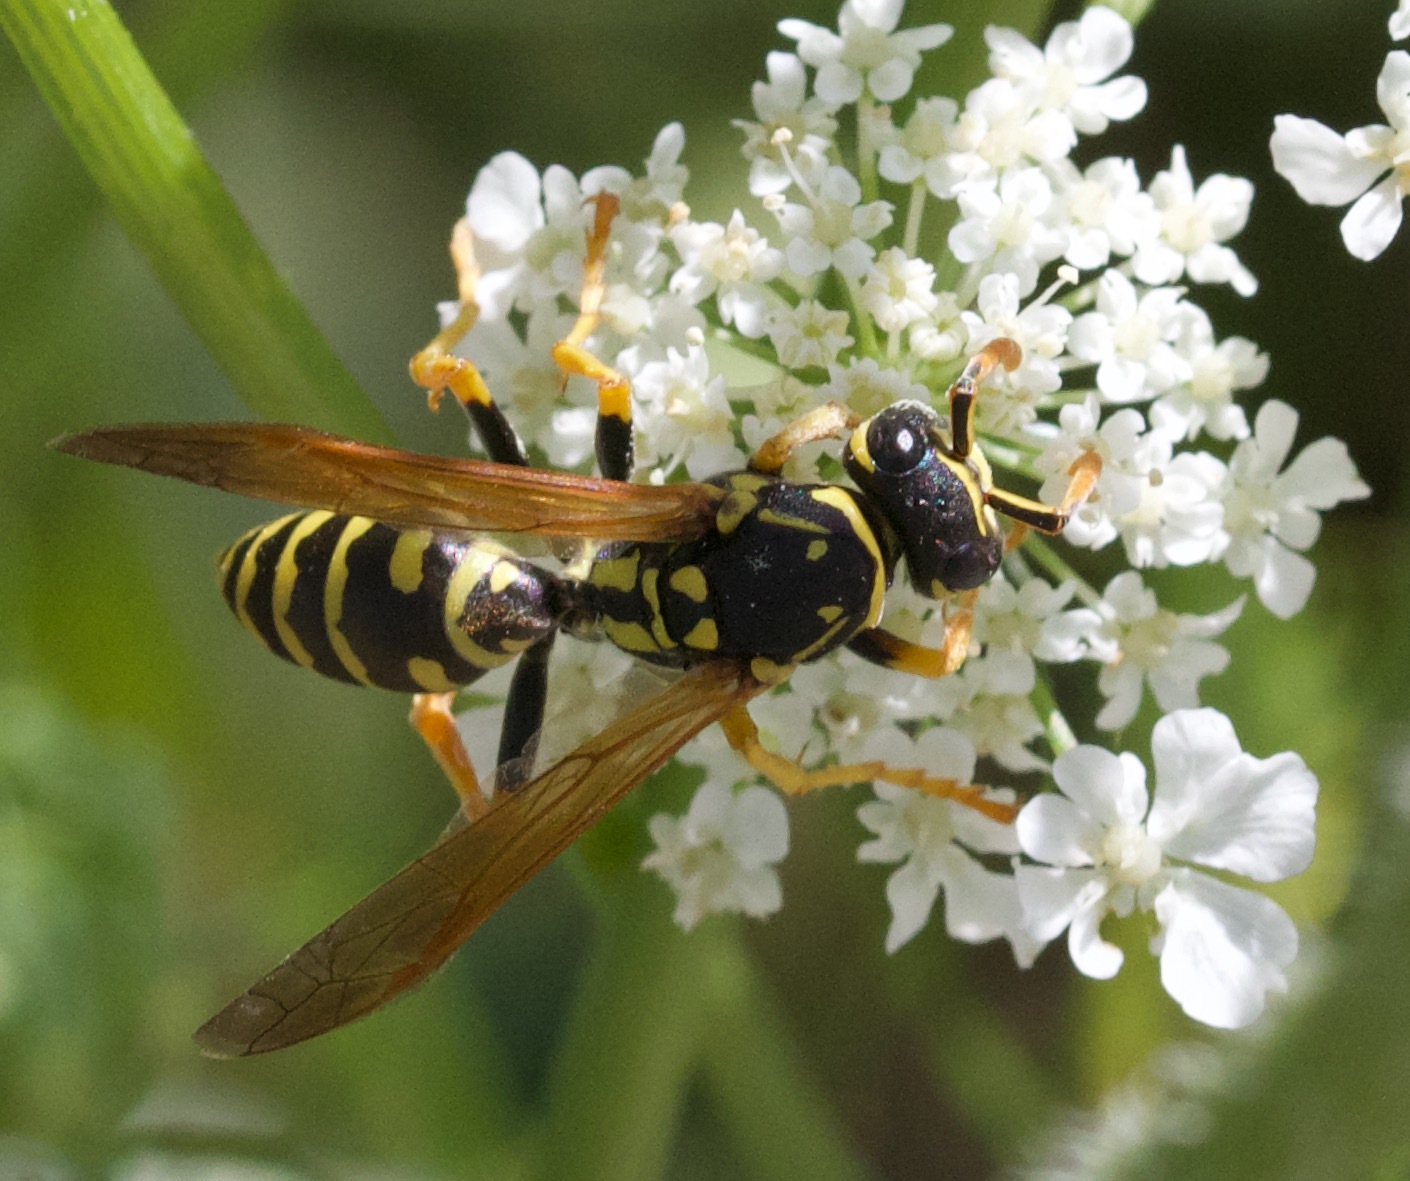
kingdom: Animalia
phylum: Arthropoda
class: Insecta
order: Hymenoptera
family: Eumenidae
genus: Polistes
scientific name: Polistes dominula
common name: Paper wasp
